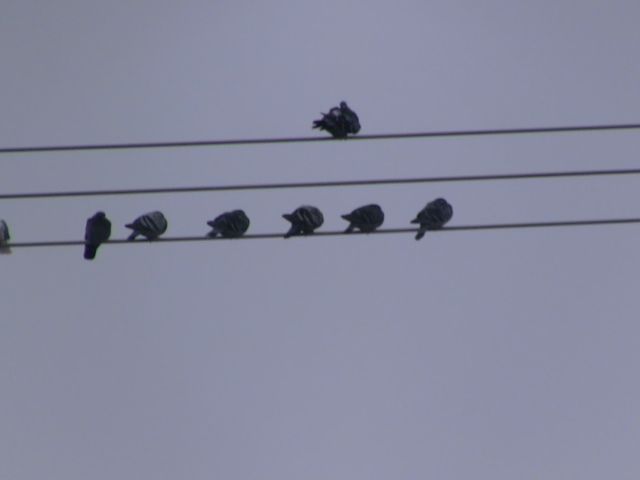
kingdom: Animalia
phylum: Chordata
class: Aves
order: Columbiformes
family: Columbidae
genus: Columba
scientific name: Columba livia
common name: Rock pigeon
